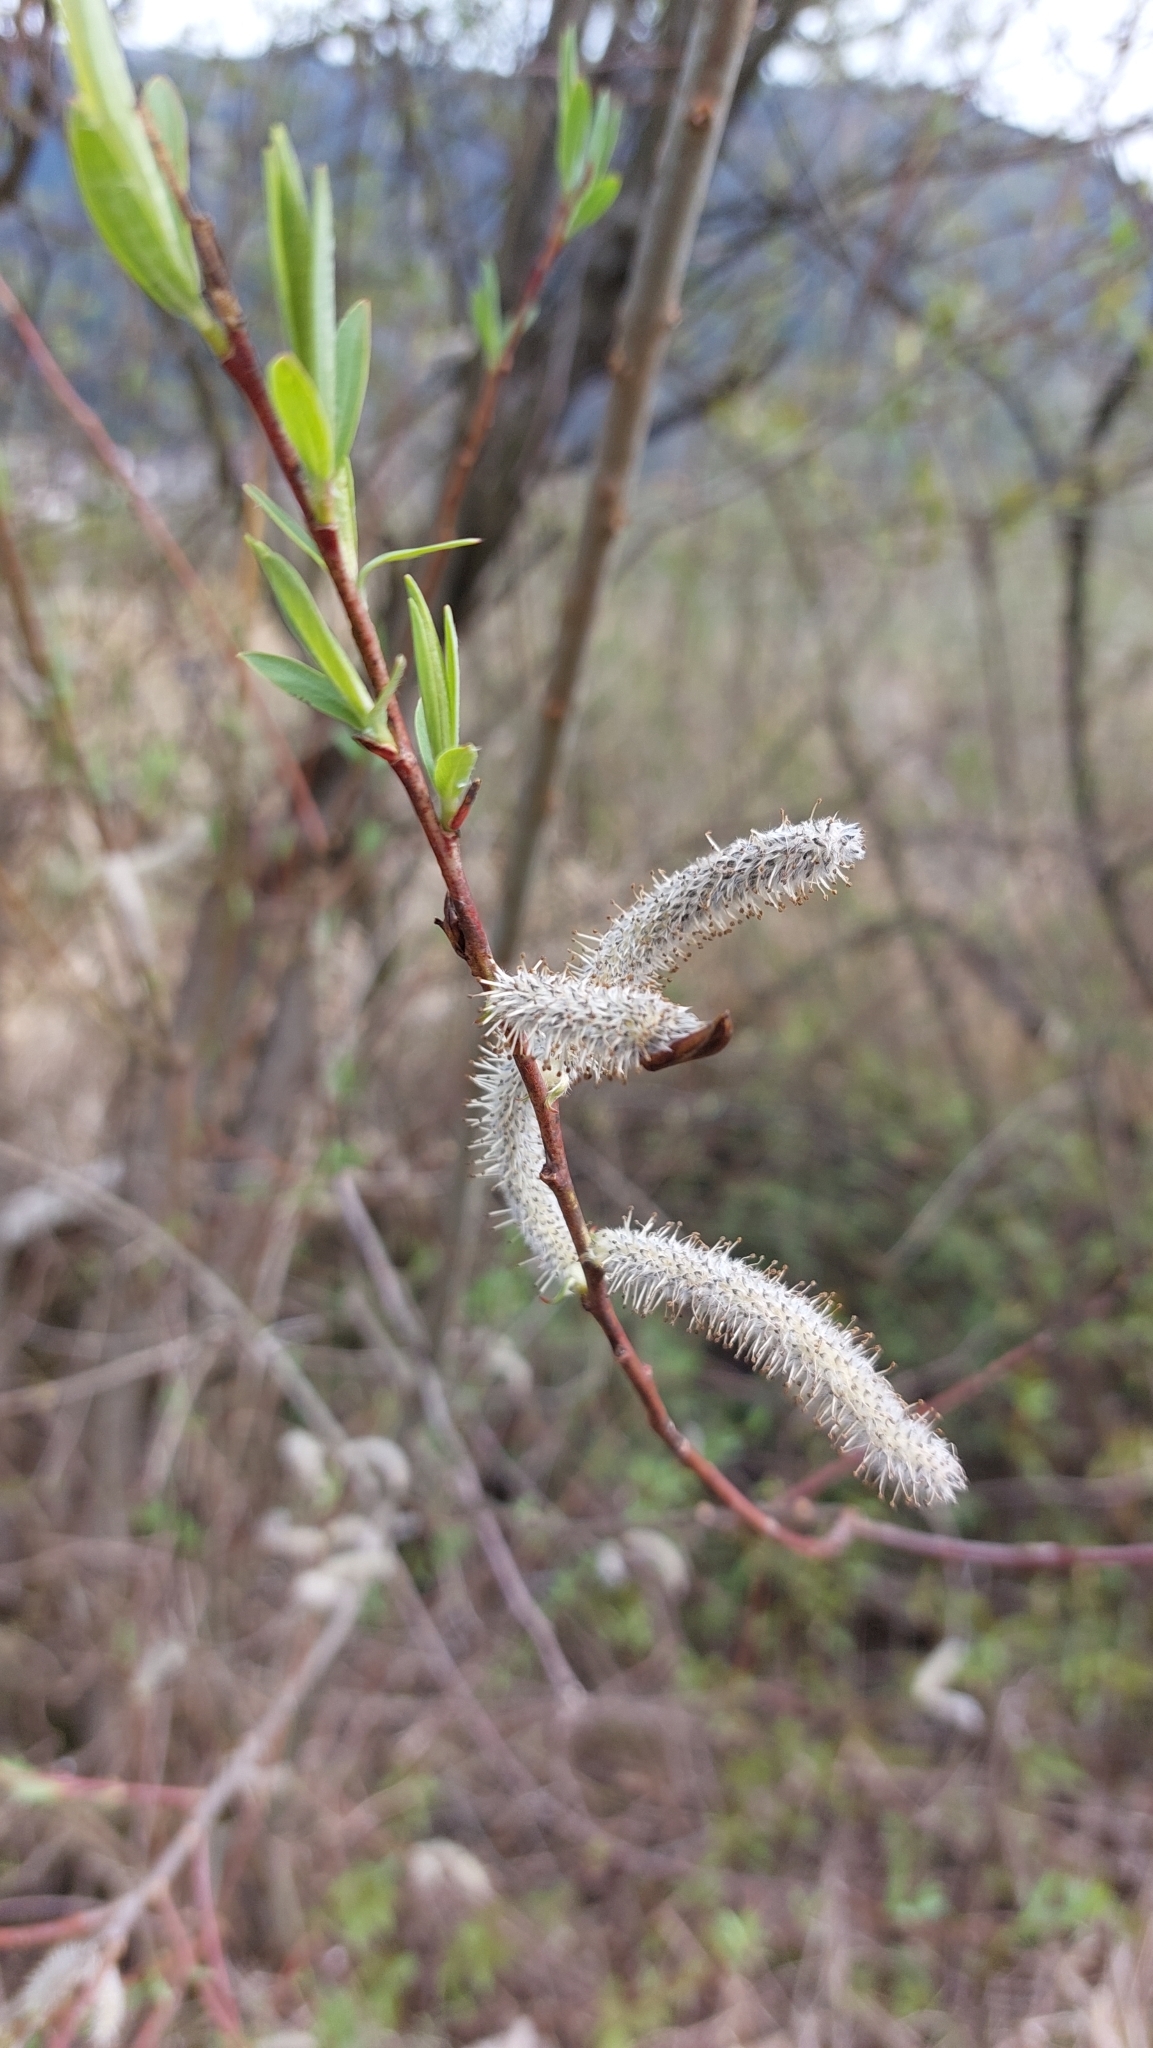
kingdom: Plantae
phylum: Tracheophyta
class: Magnoliopsida
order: Malpighiales
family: Salicaceae
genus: Salix
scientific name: Salix purpurea
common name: Purple willow
